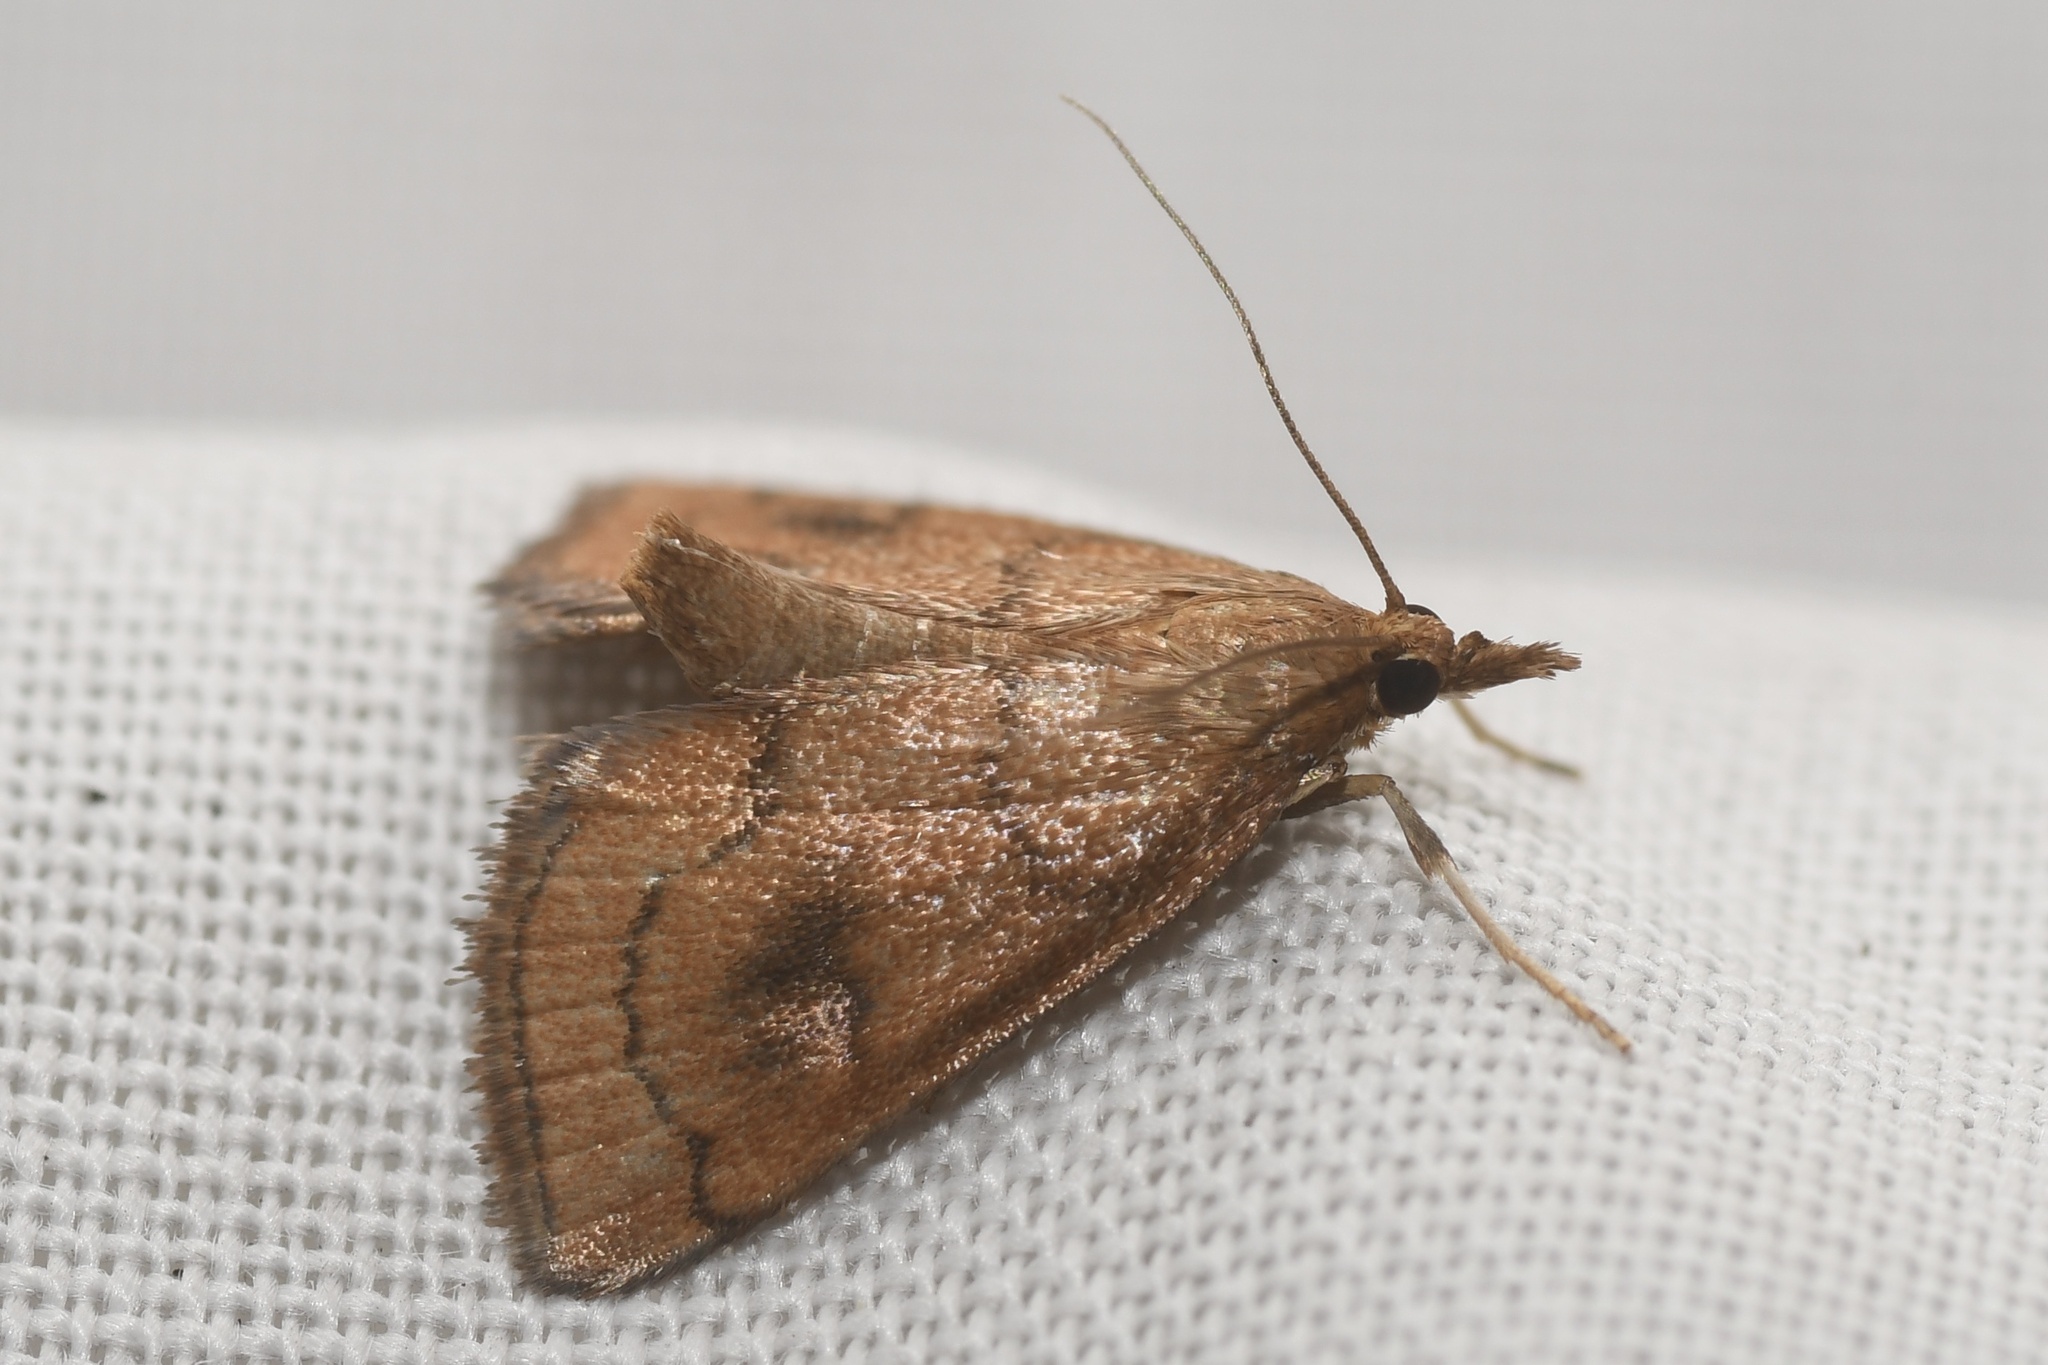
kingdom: Animalia
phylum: Arthropoda
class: Insecta
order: Lepidoptera
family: Crambidae
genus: Fumibotys
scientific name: Fumibotys fumalis
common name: Mint root borer moth
